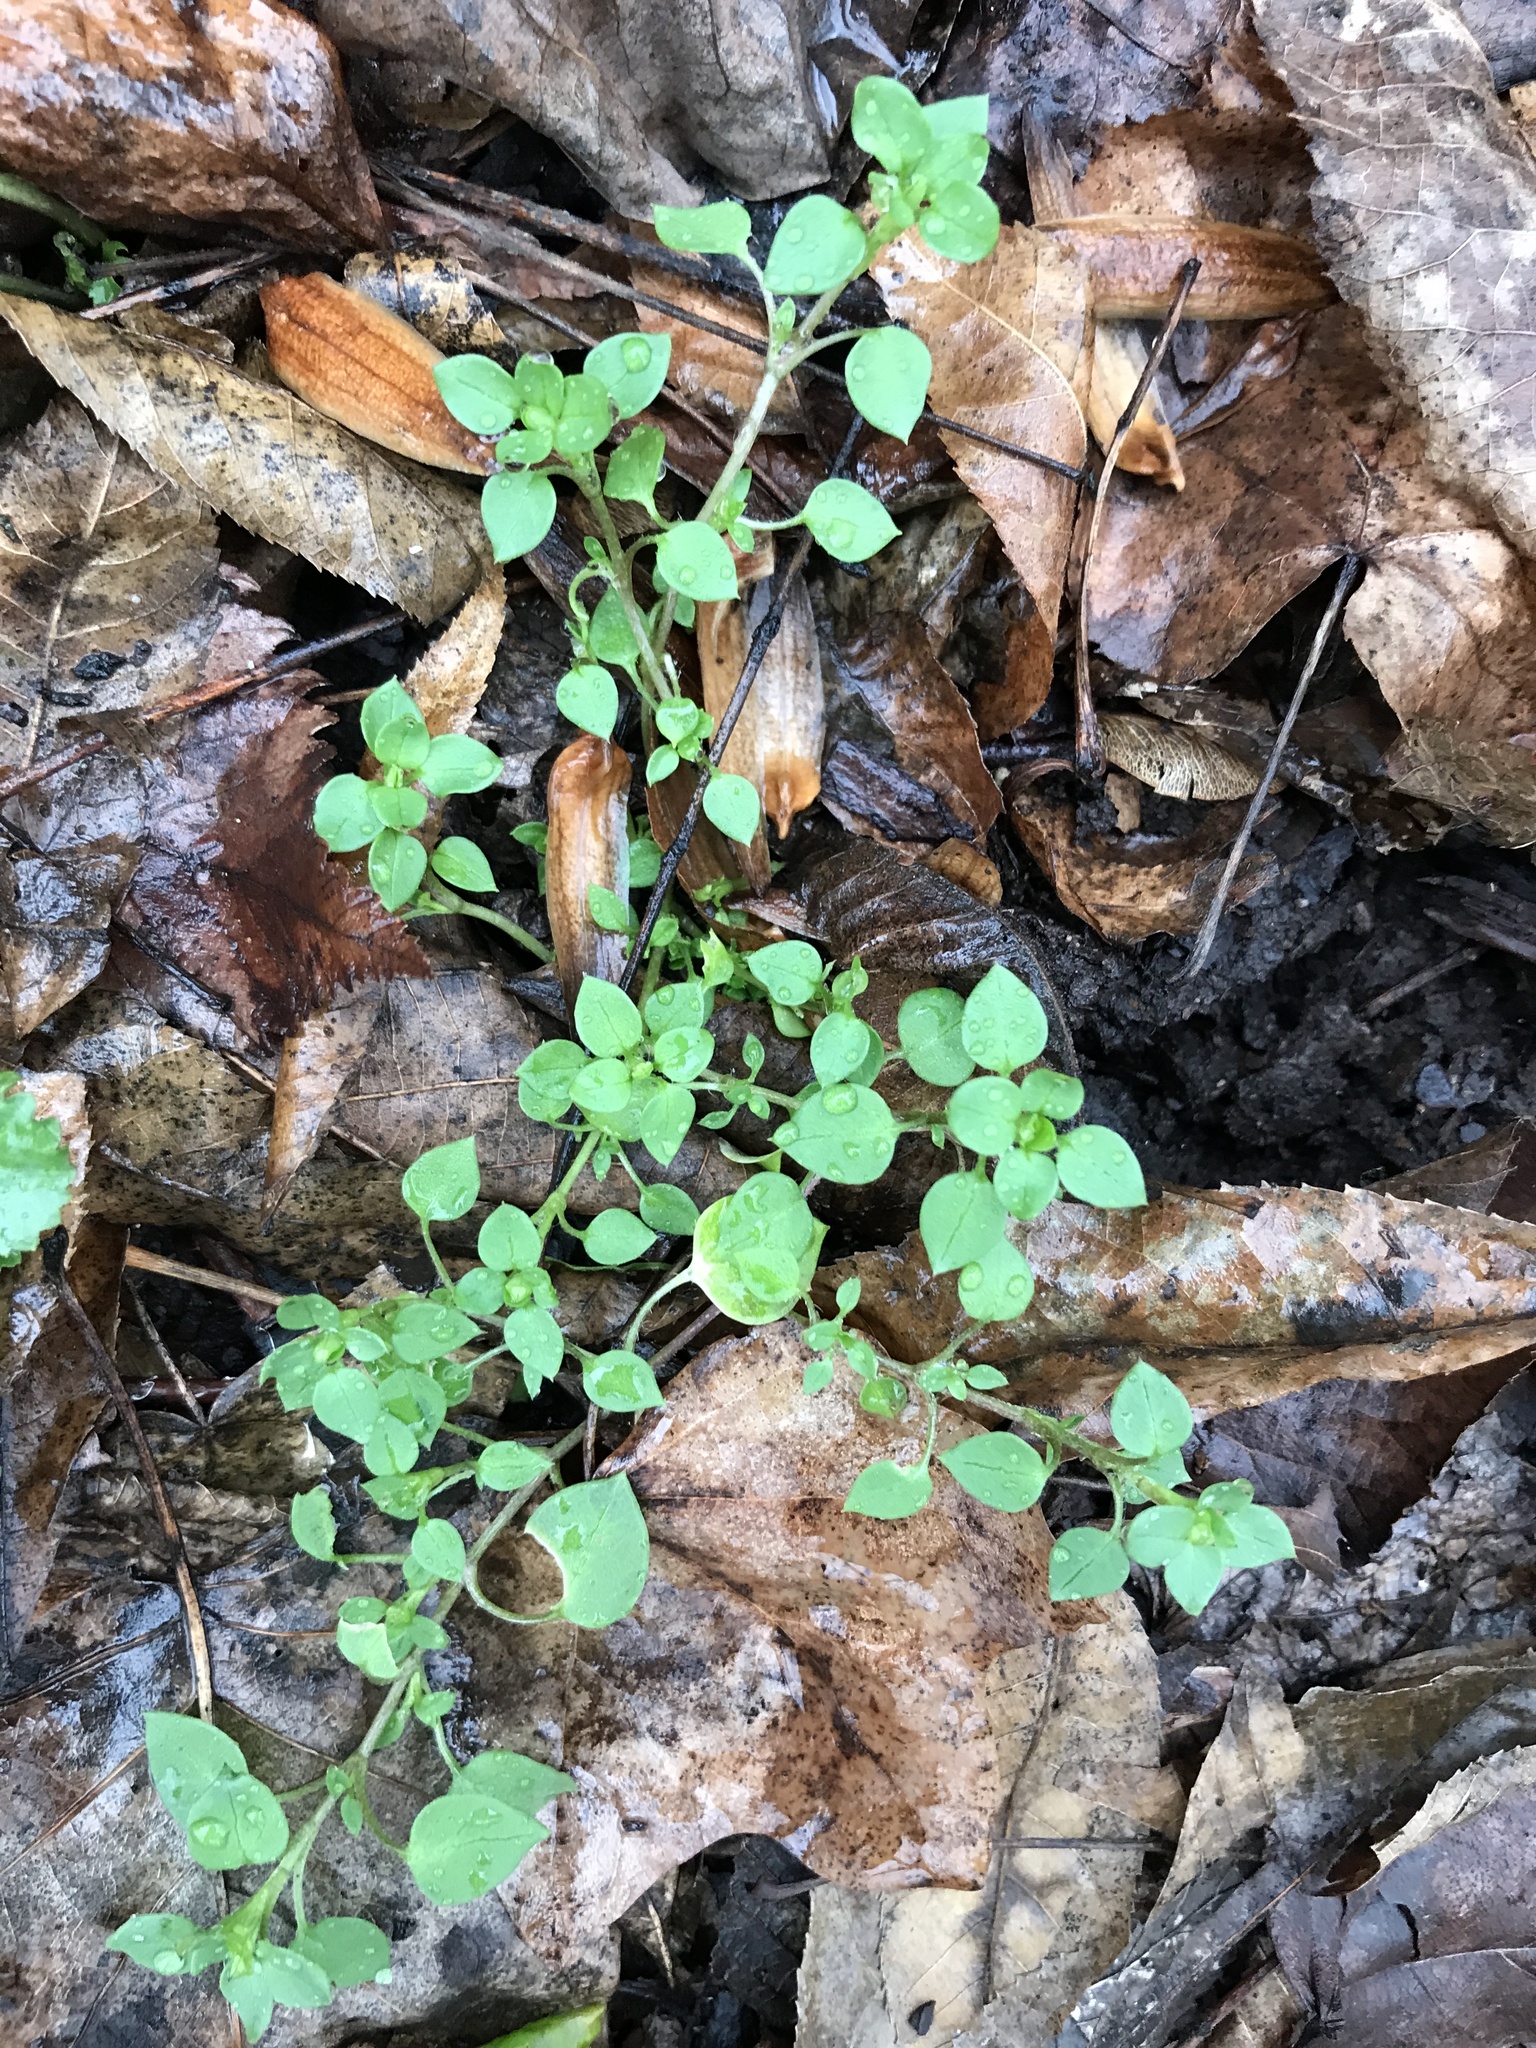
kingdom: Plantae
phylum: Tracheophyta
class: Magnoliopsida
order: Caryophyllales
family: Caryophyllaceae
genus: Stellaria
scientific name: Stellaria media
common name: Common chickweed
